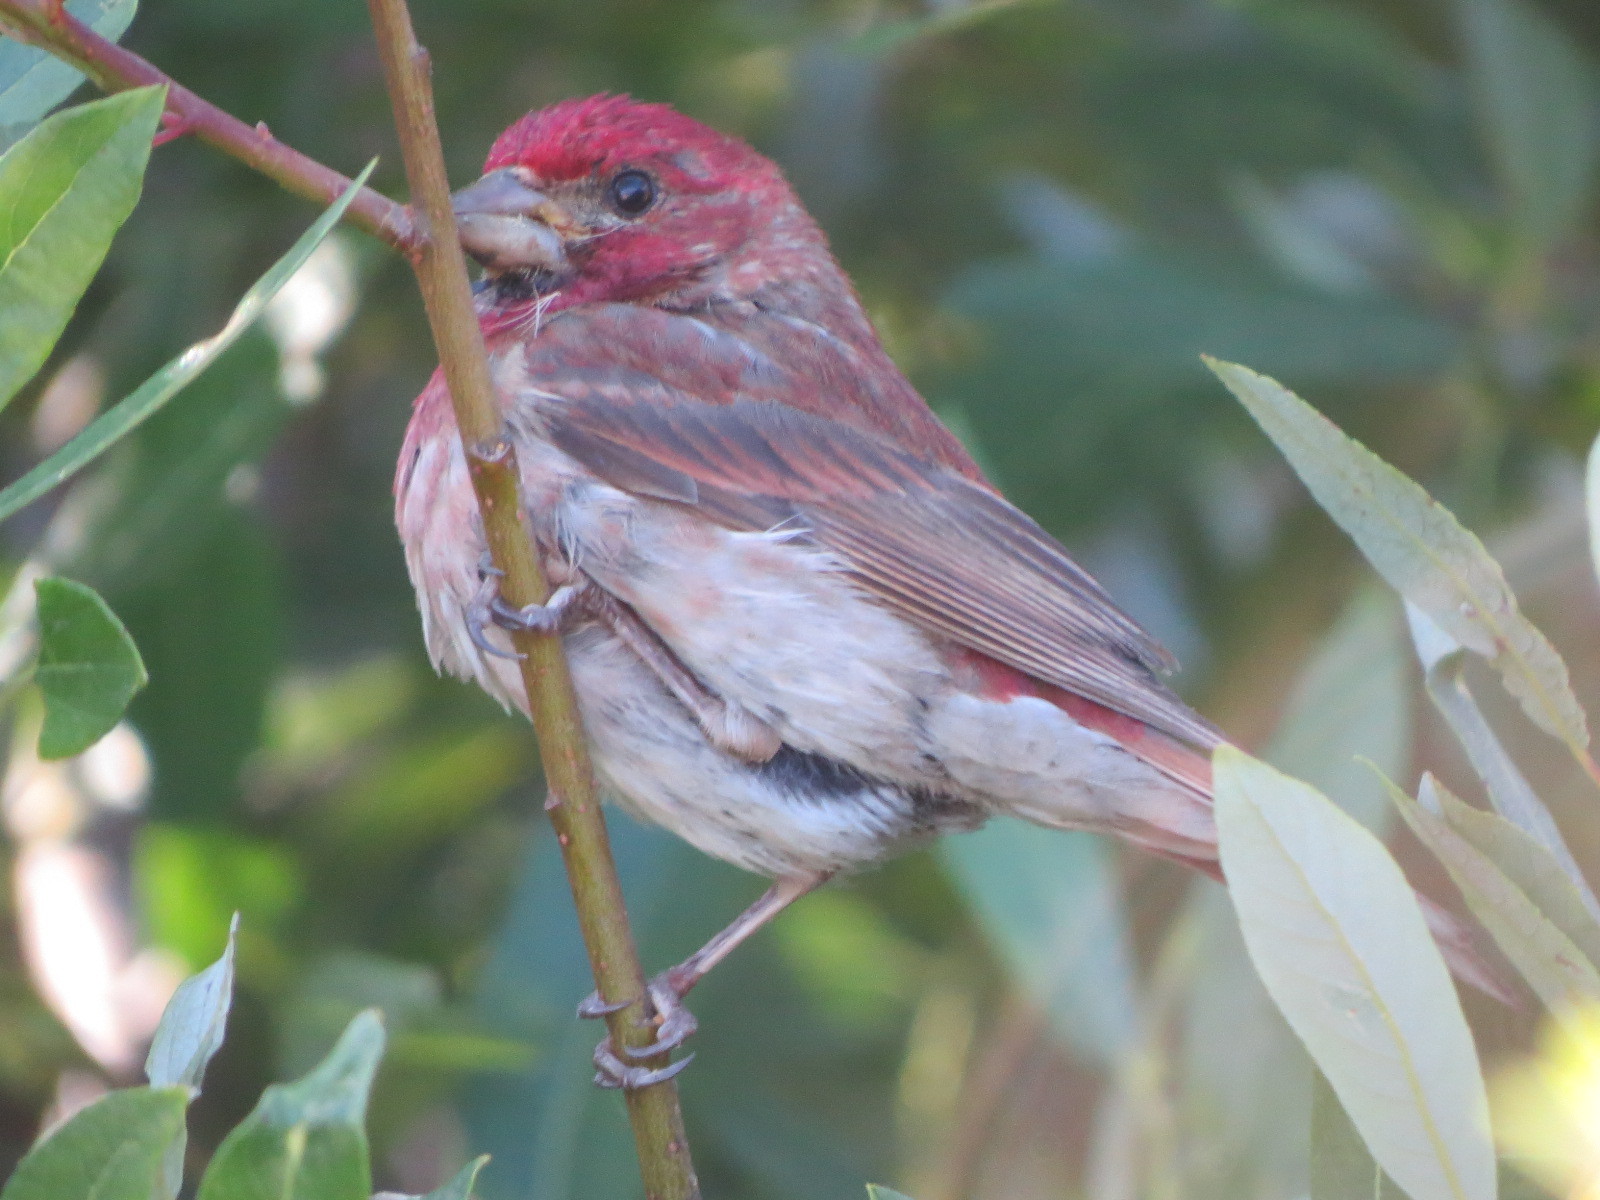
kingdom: Animalia
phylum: Chordata
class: Aves
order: Passeriformes
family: Fringillidae
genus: Haemorhous
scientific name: Haemorhous purpureus
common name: Purple finch
